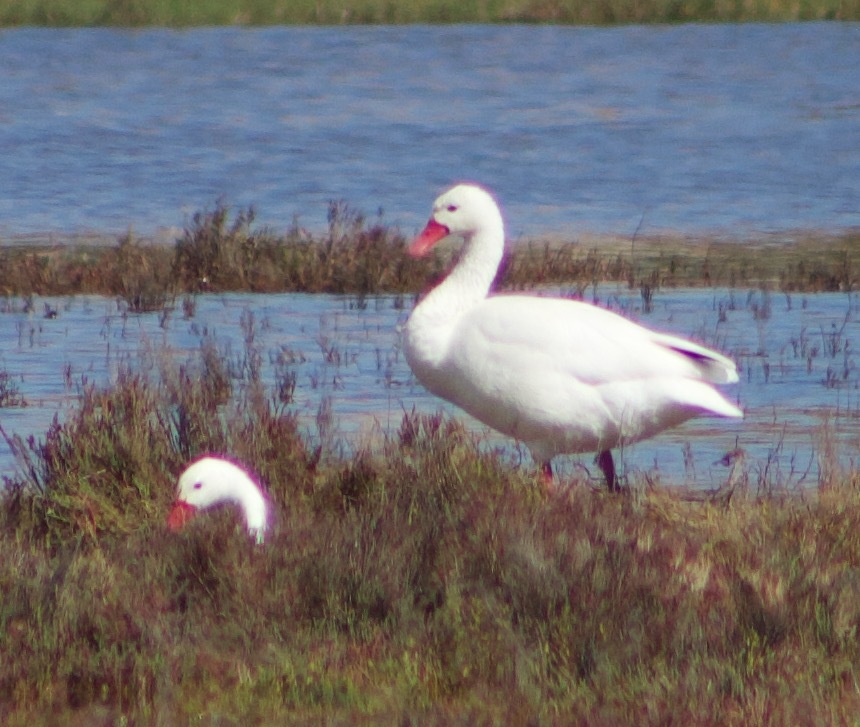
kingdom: Animalia
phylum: Chordata
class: Aves
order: Anseriformes
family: Anatidae
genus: Coscoroba
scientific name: Coscoroba coscoroba
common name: Coscoroba swan
